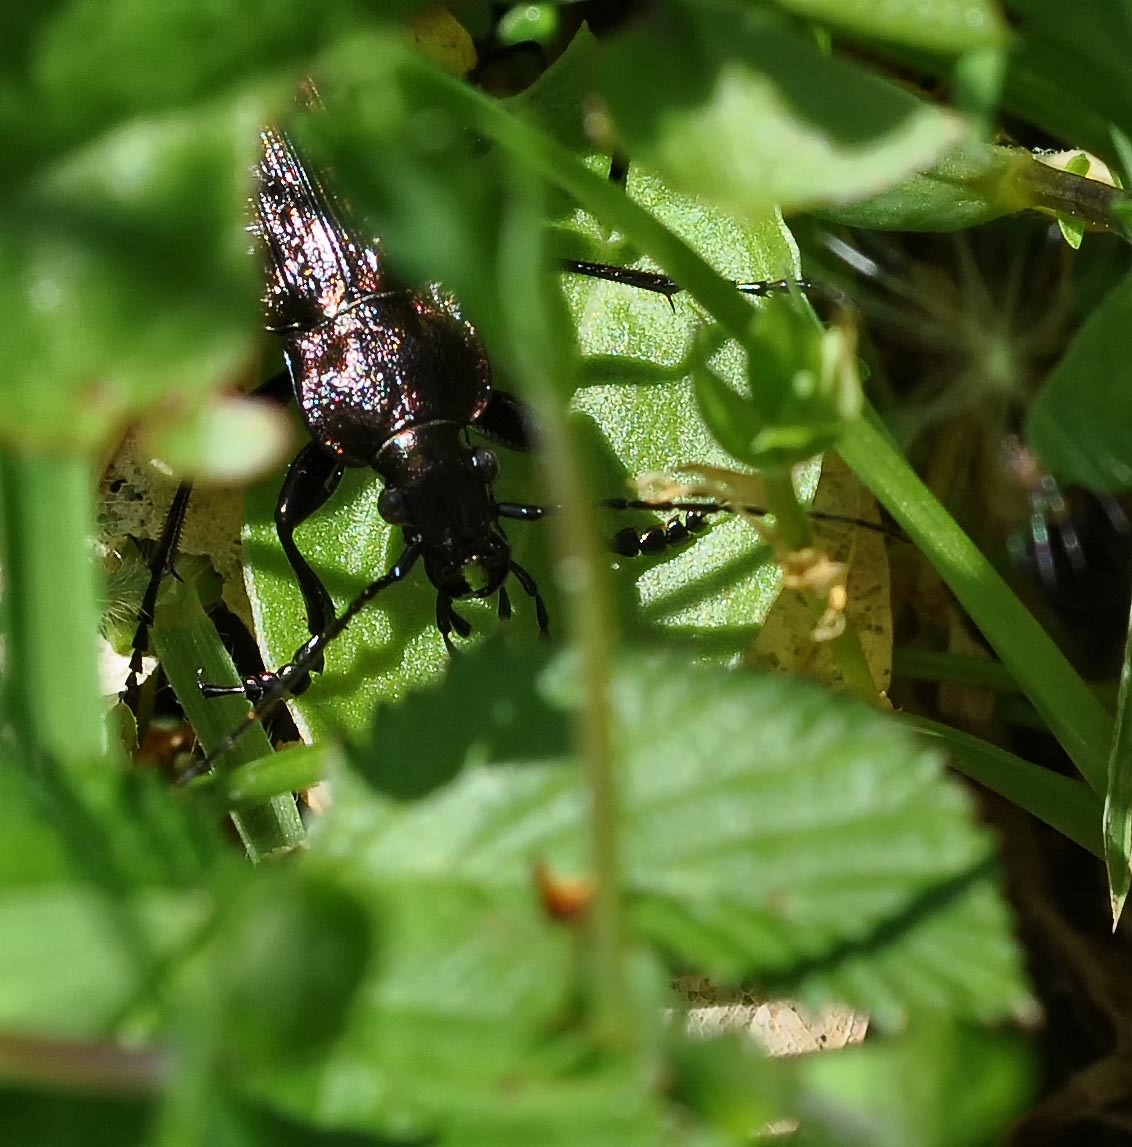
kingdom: Animalia
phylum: Arthropoda
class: Insecta
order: Coleoptera
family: Carabidae
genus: Carabus
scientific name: Carabus granulatus
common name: Granulate ground beetle
